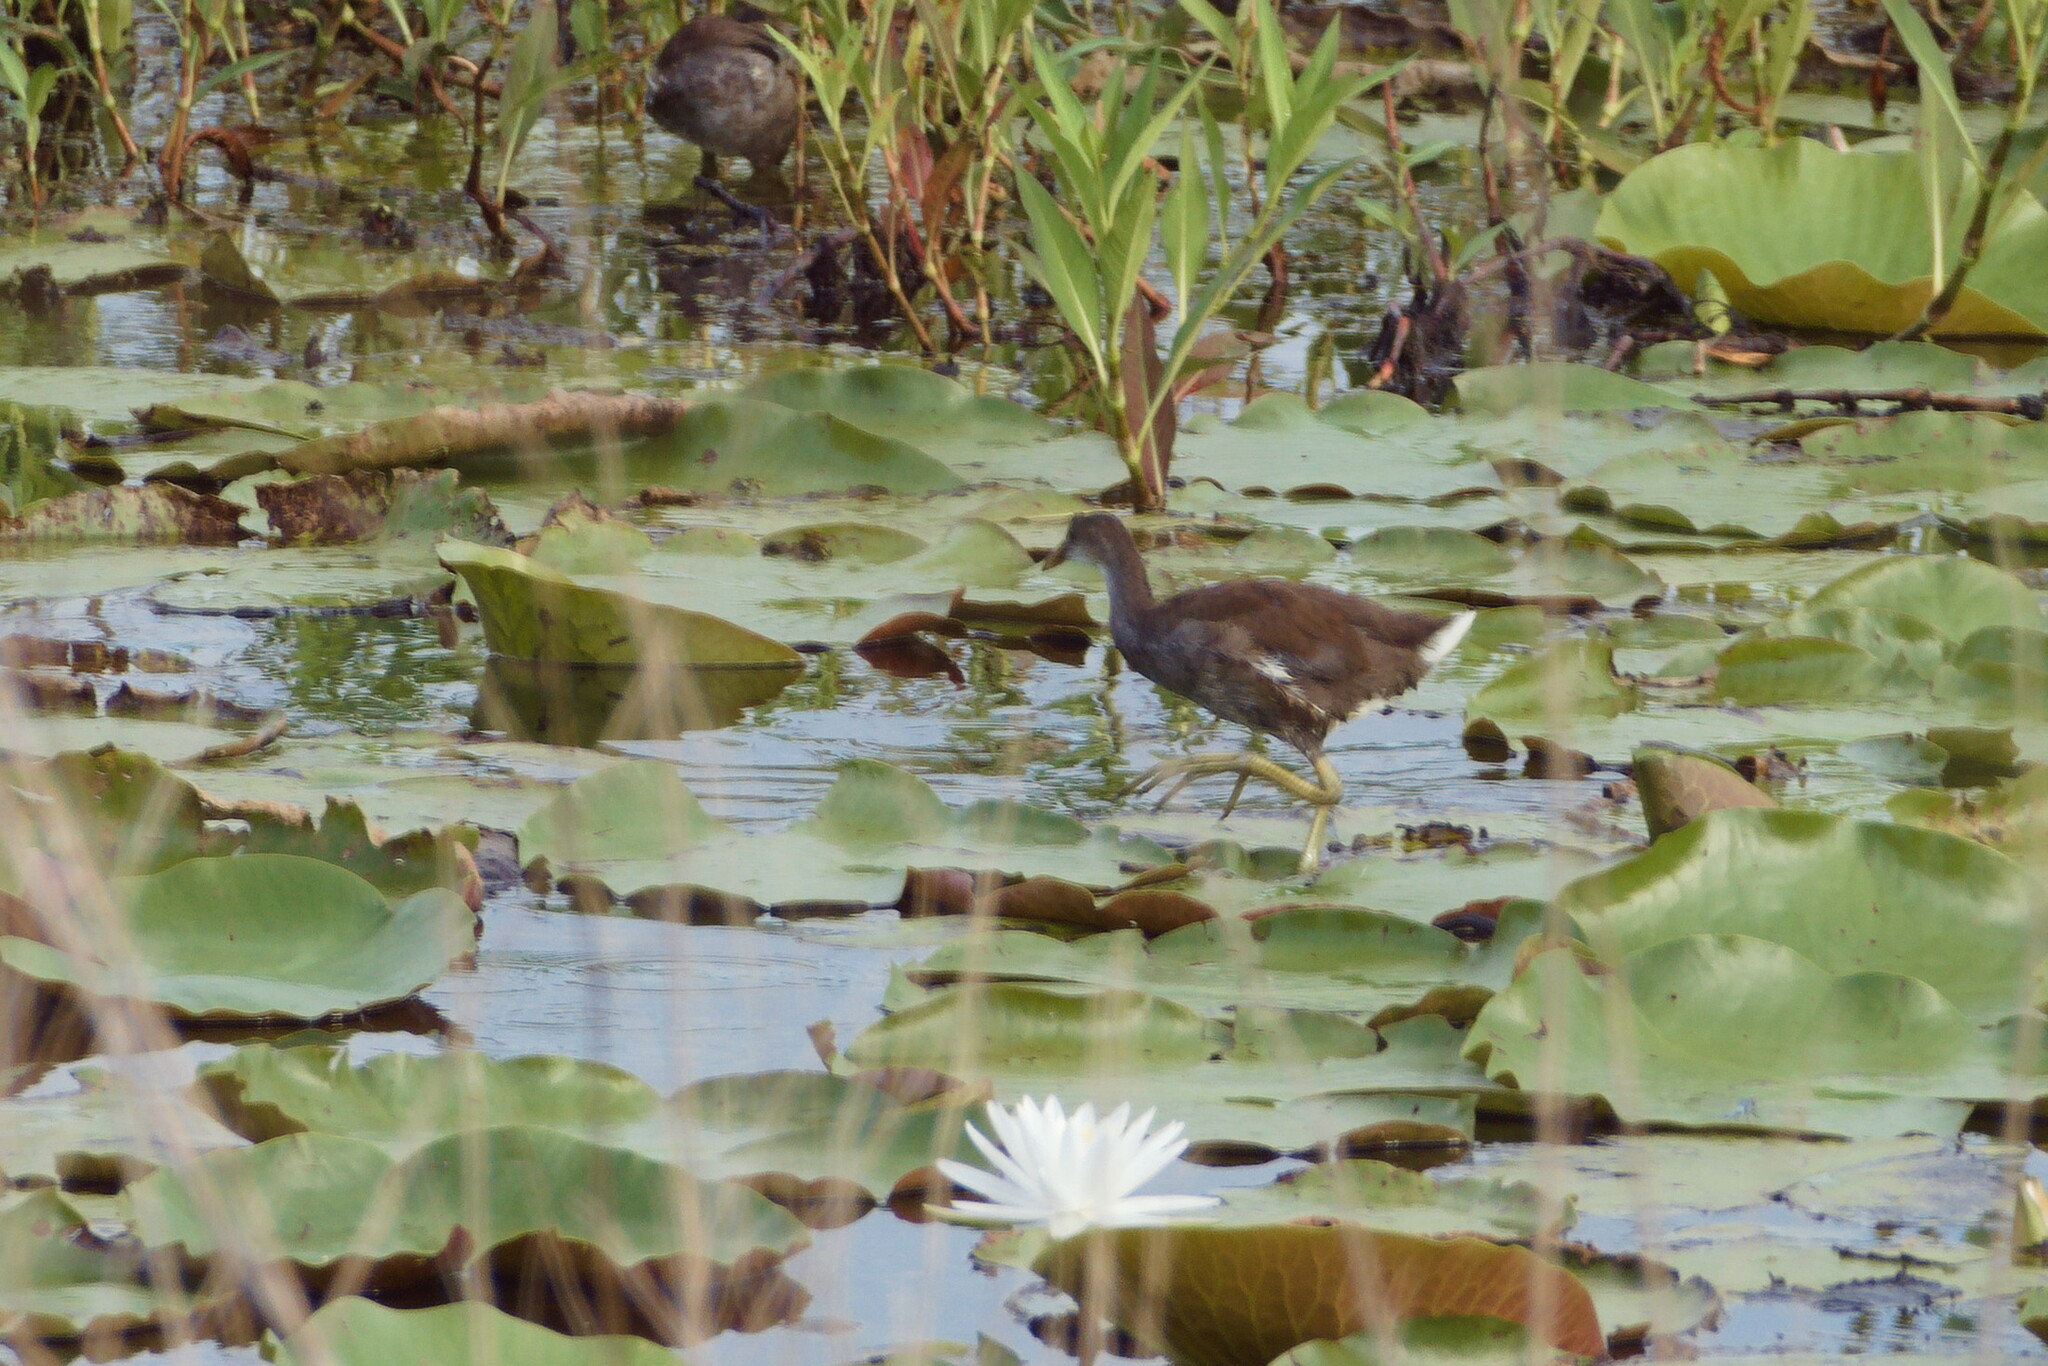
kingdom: Animalia
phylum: Chordata
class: Aves
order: Gruiformes
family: Rallidae
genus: Gallinula
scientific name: Gallinula chloropus
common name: Common moorhen
